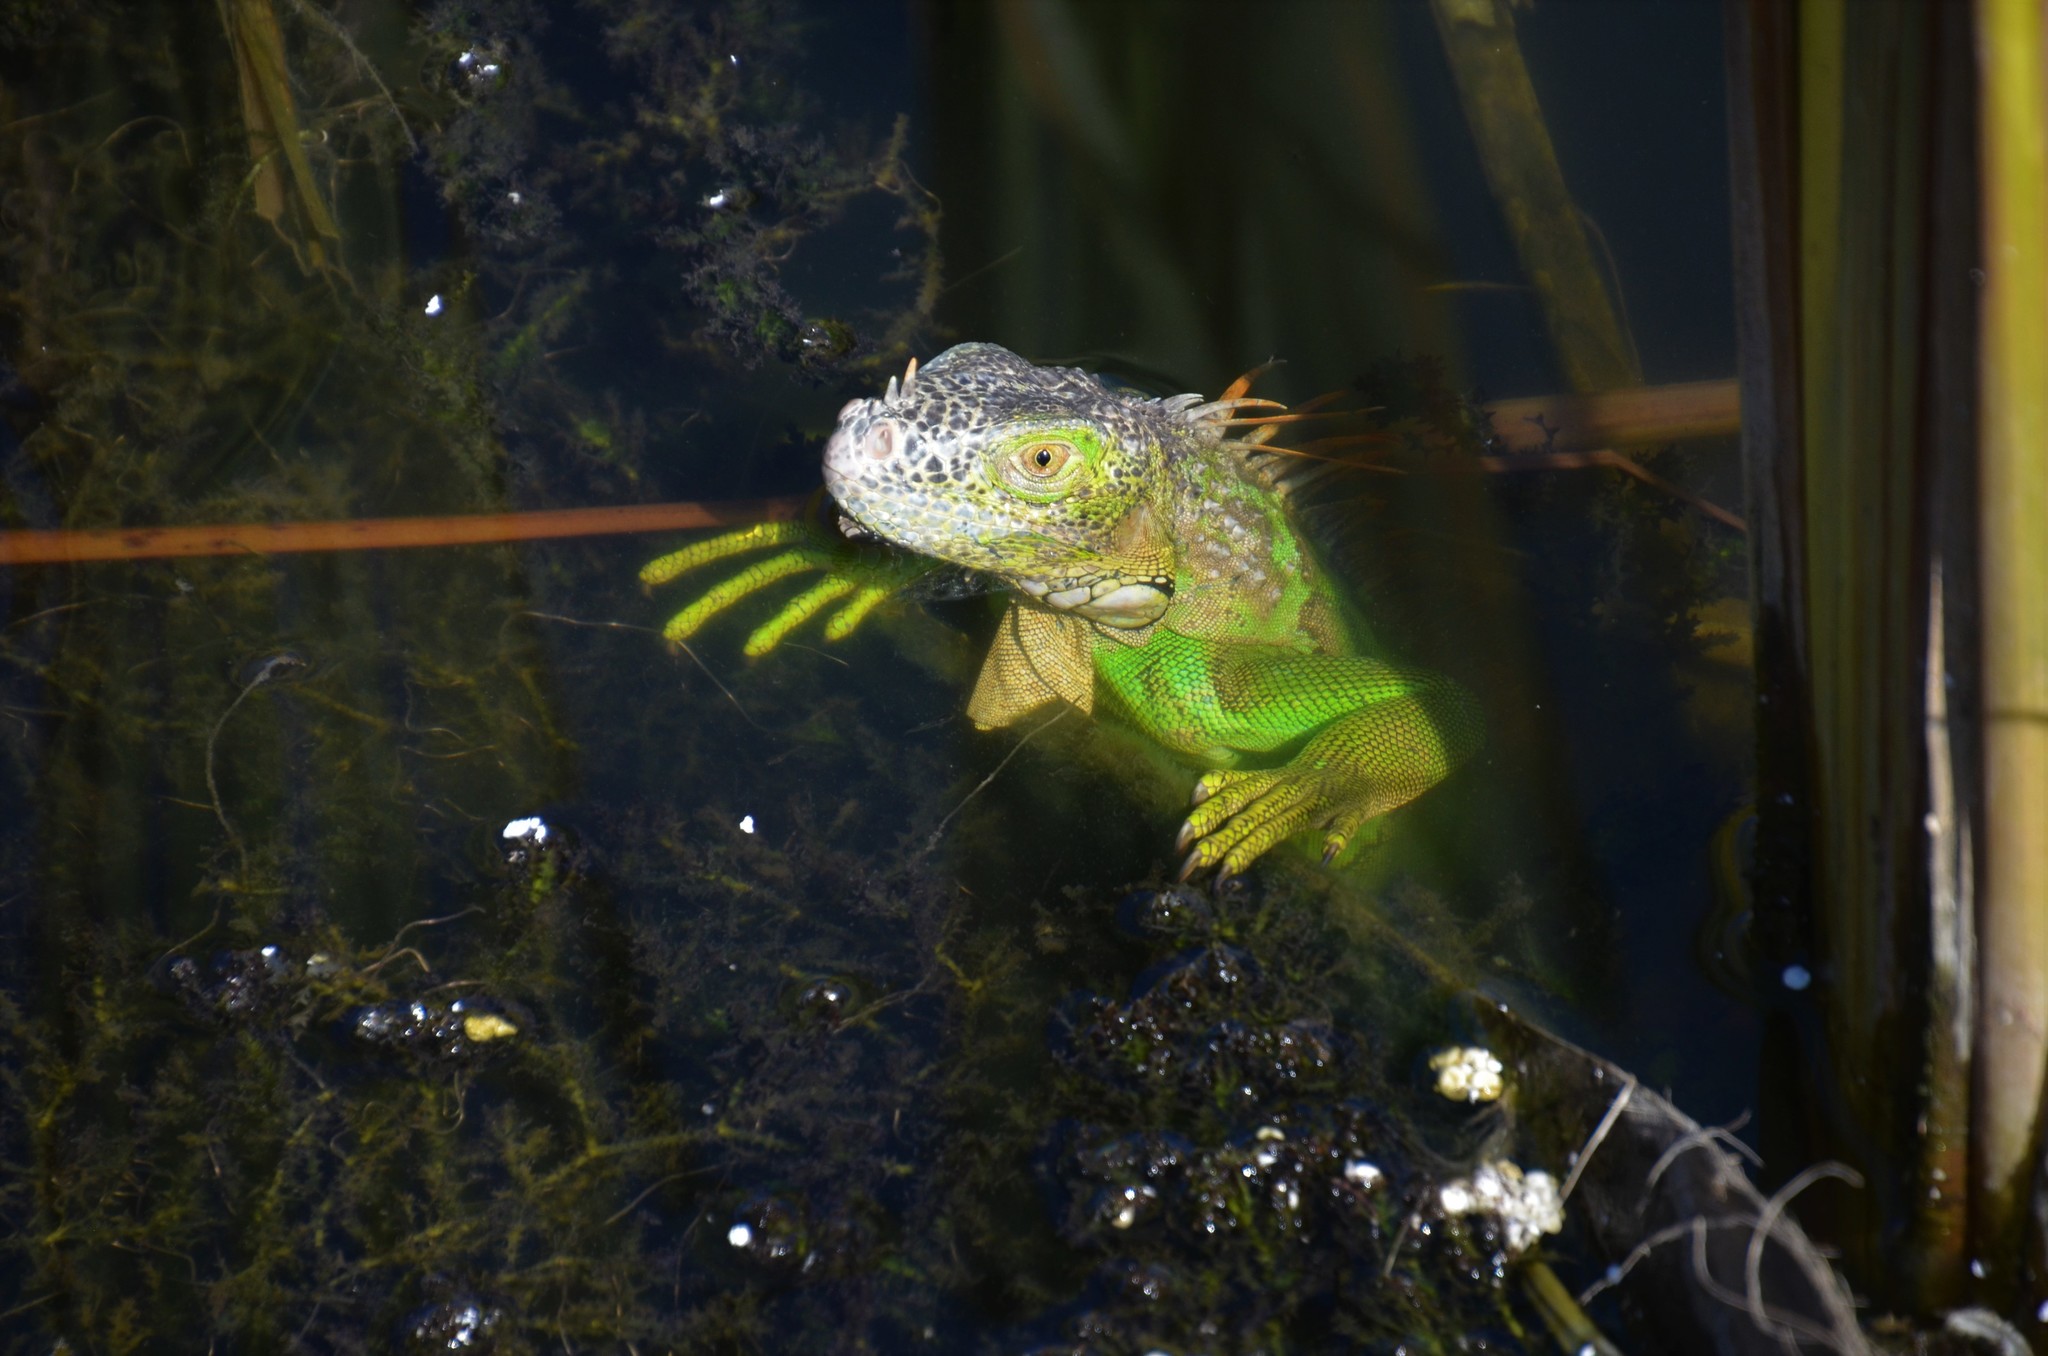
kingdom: Animalia
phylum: Chordata
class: Squamata
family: Iguanidae
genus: Iguana
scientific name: Iguana iguana
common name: Green iguana
